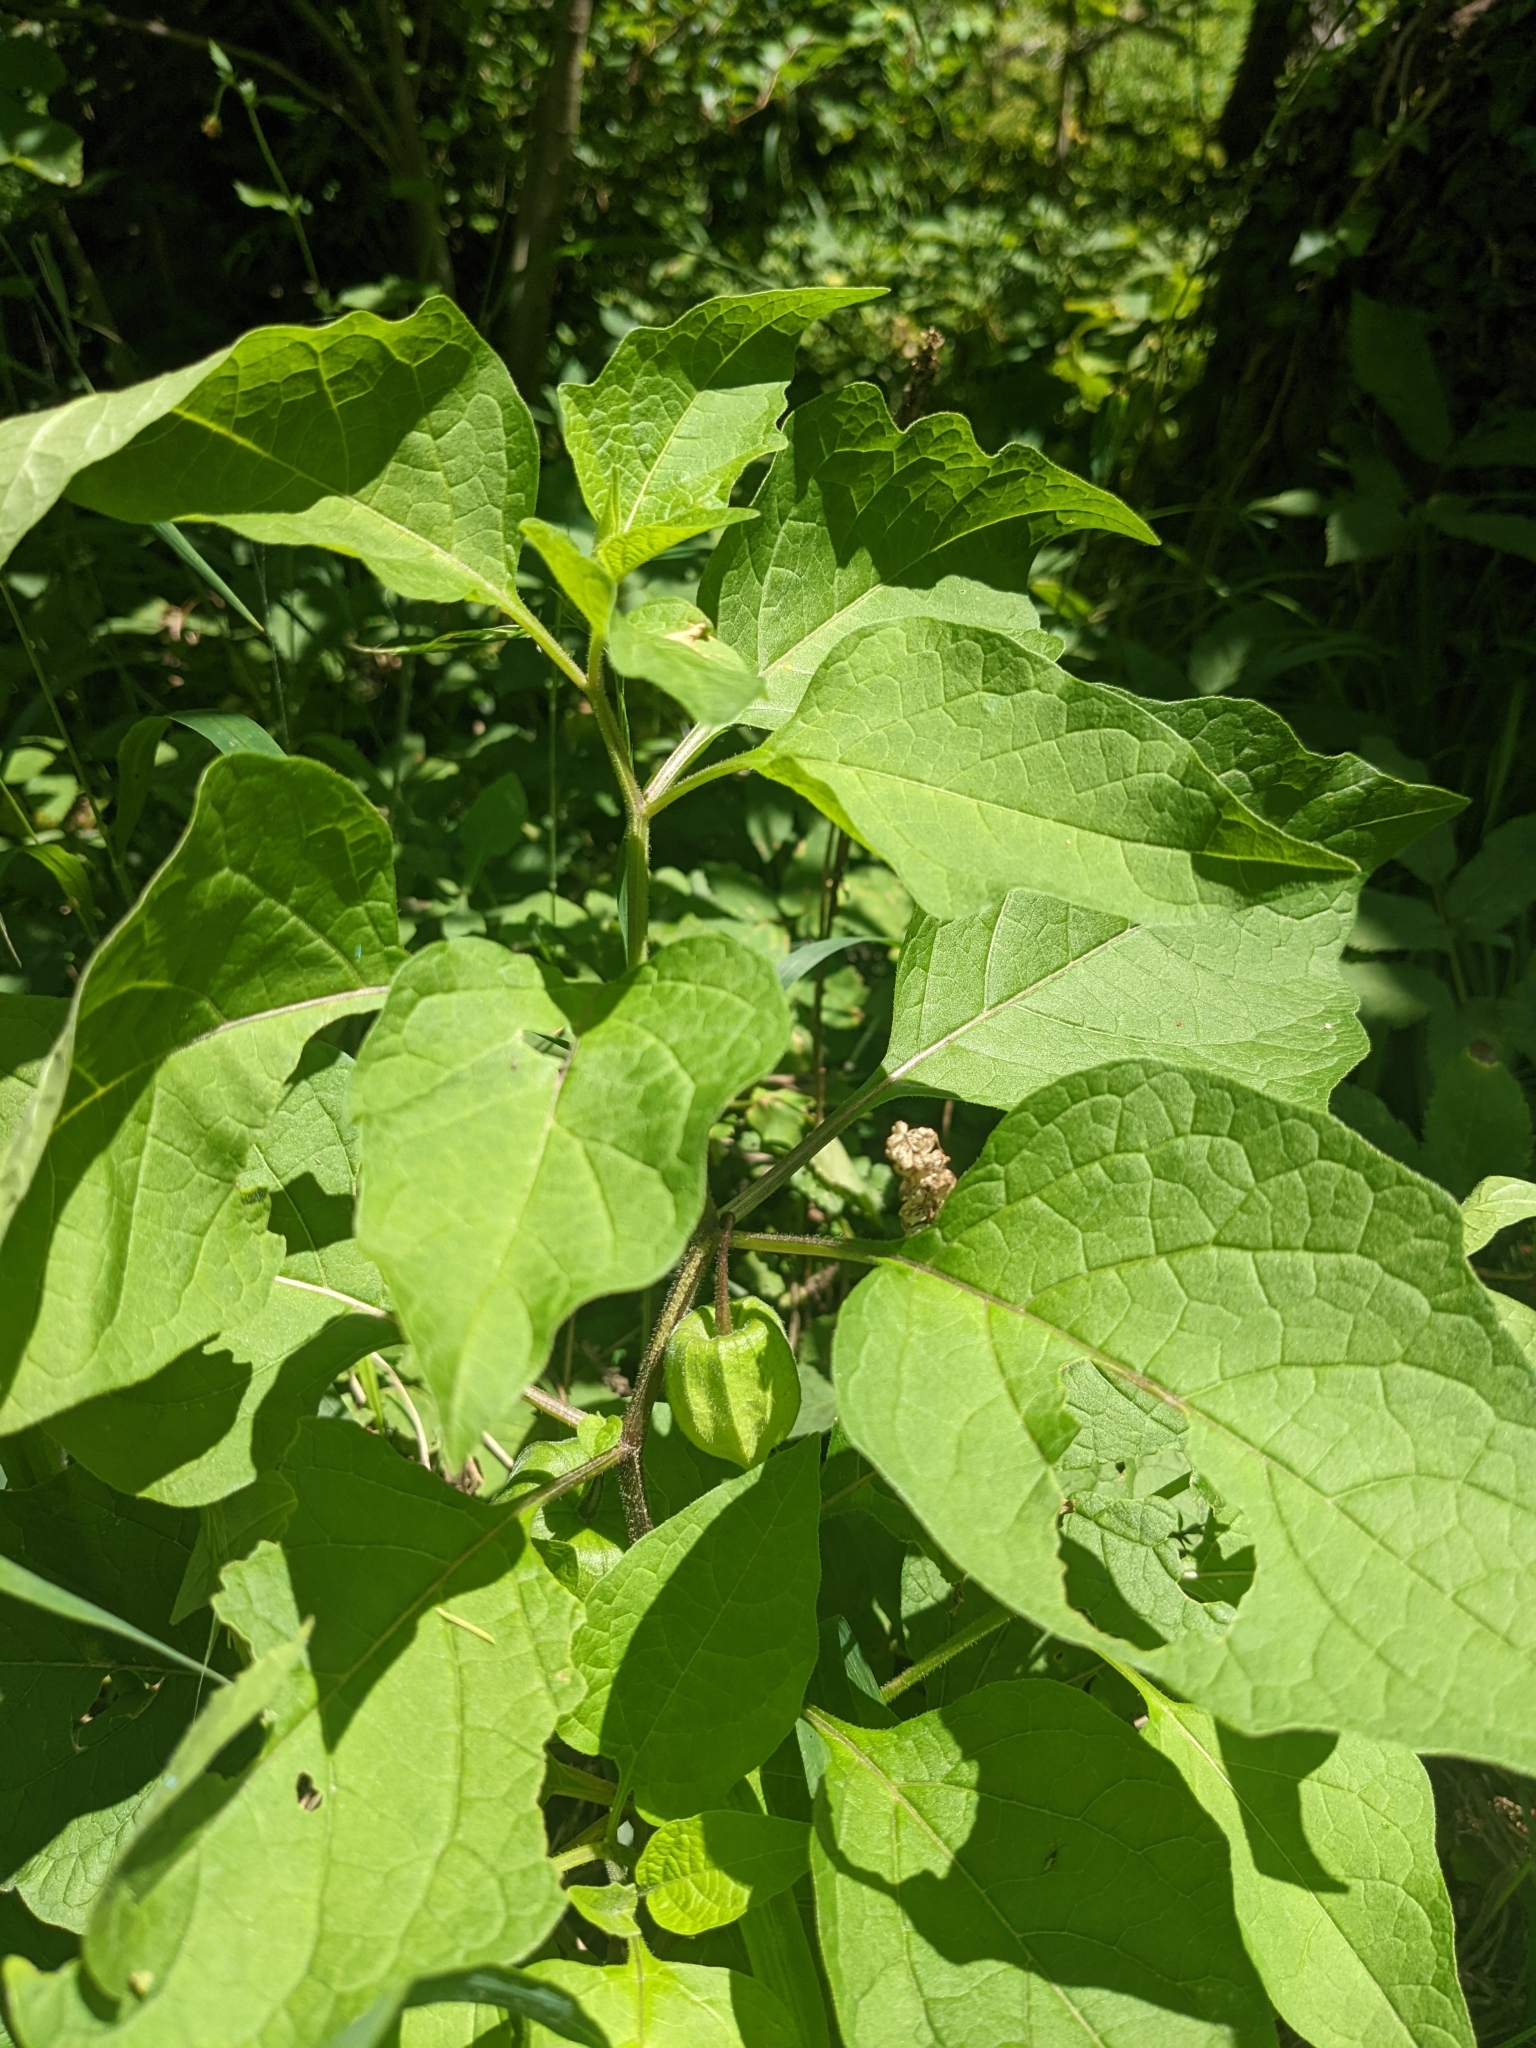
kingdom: Plantae
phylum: Tracheophyta
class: Magnoliopsida
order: Solanales
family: Solanaceae
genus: Alkekengi
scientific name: Alkekengi officinarum
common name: Japanese-lantern
